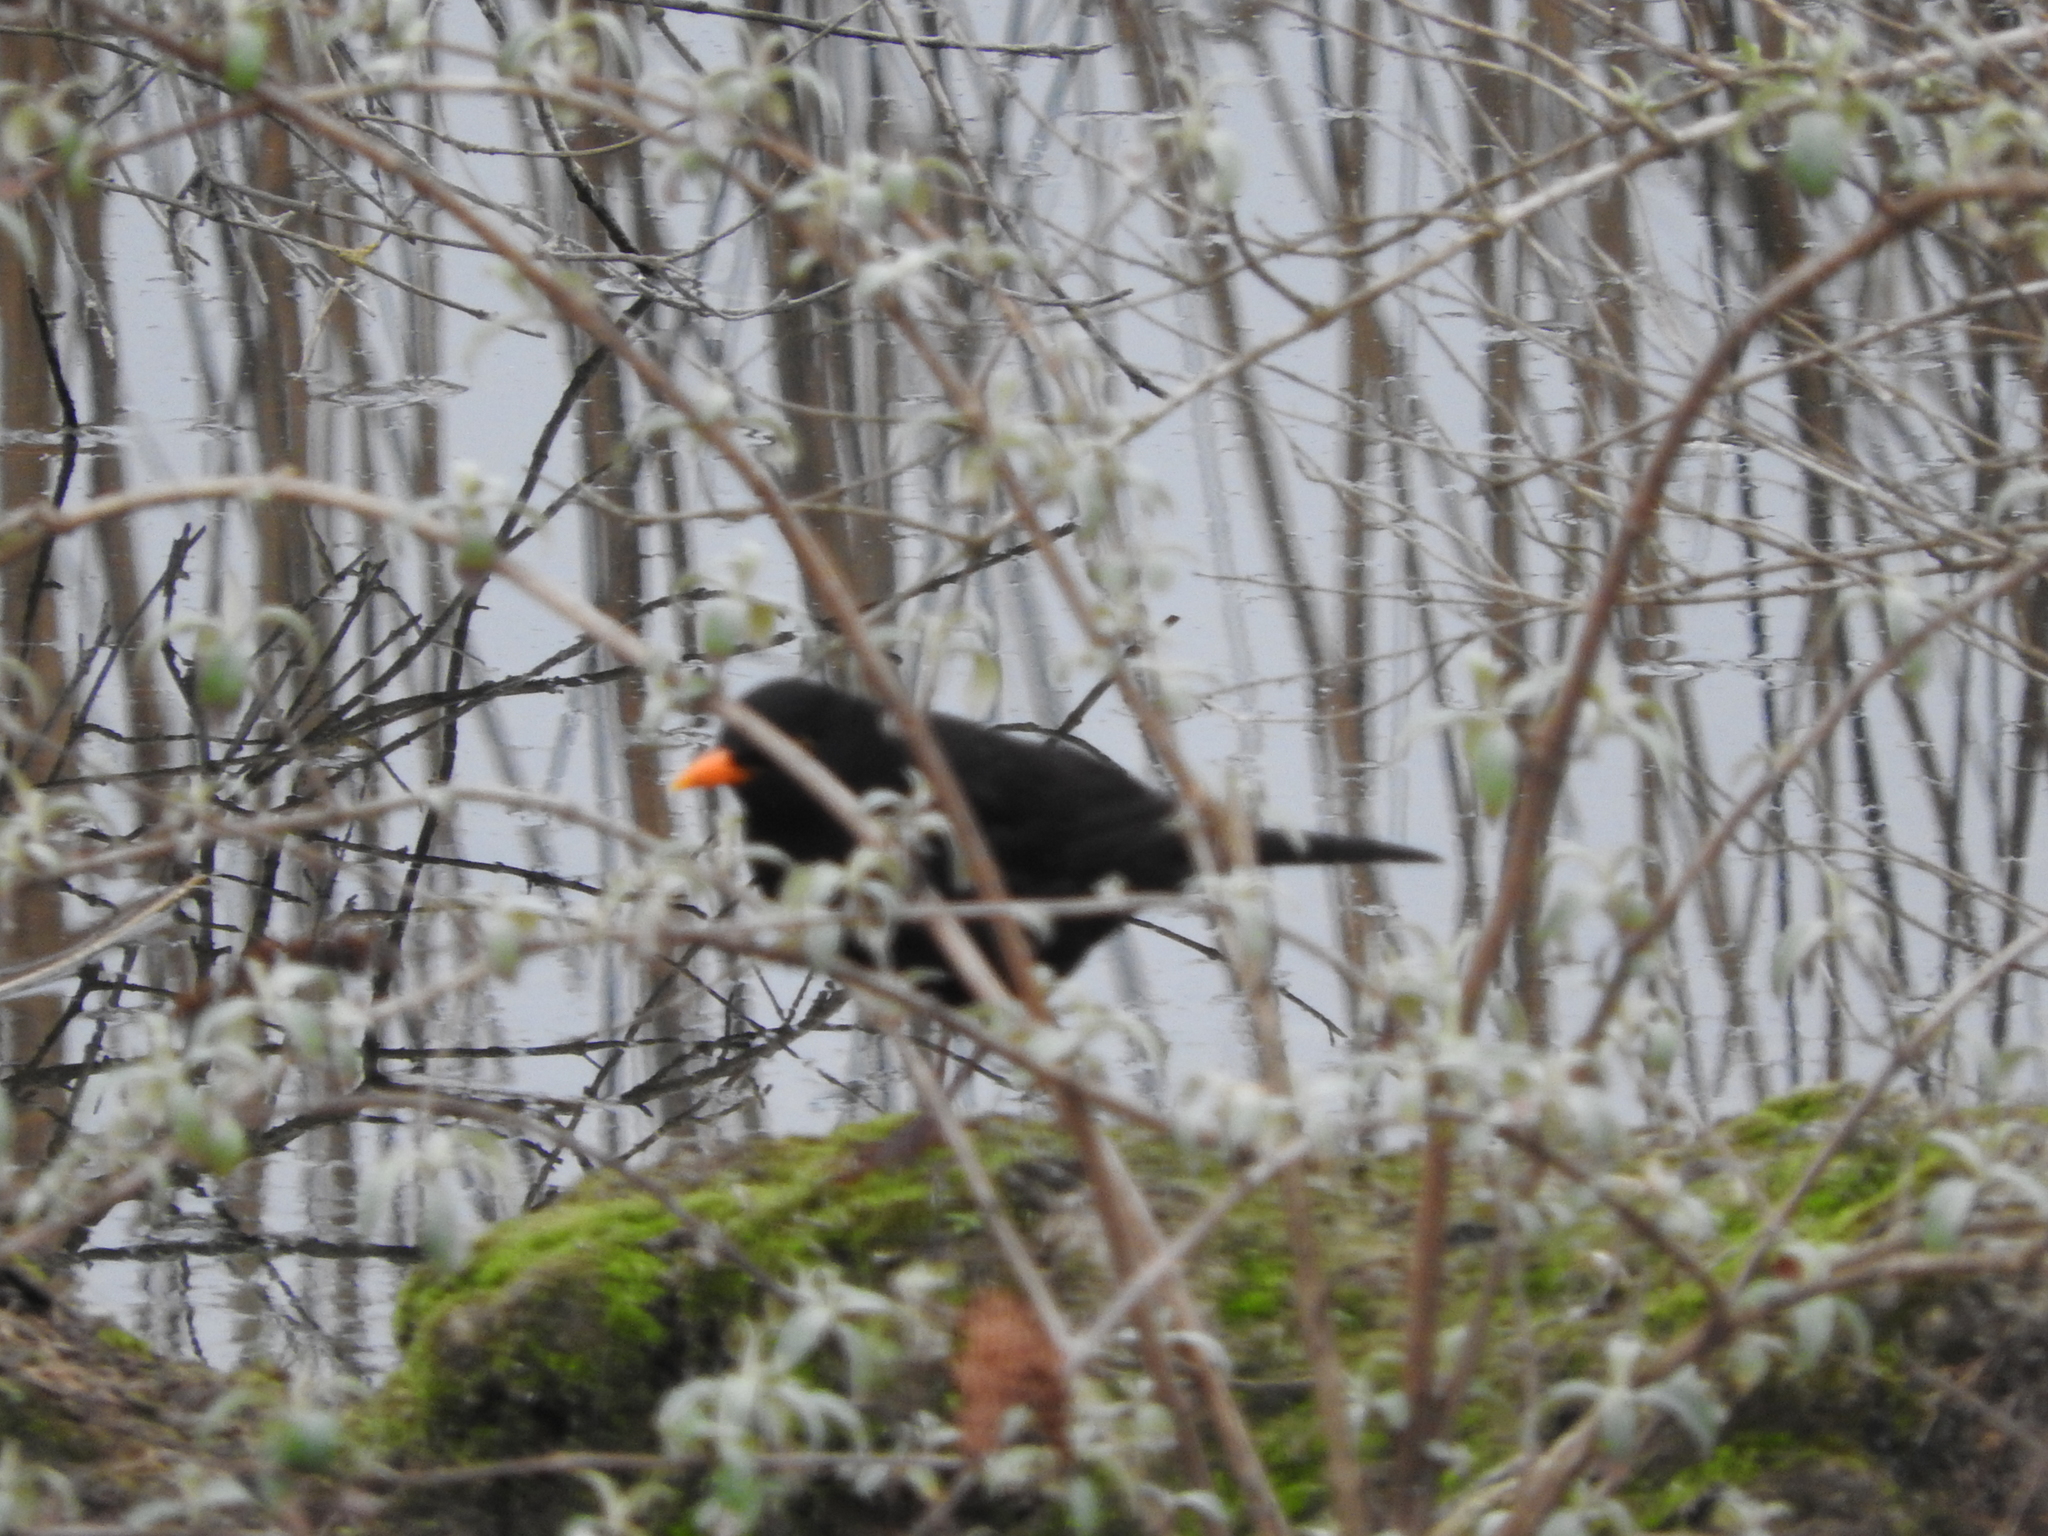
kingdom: Animalia
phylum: Chordata
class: Aves
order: Passeriformes
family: Turdidae
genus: Turdus
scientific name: Turdus merula
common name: Common blackbird
